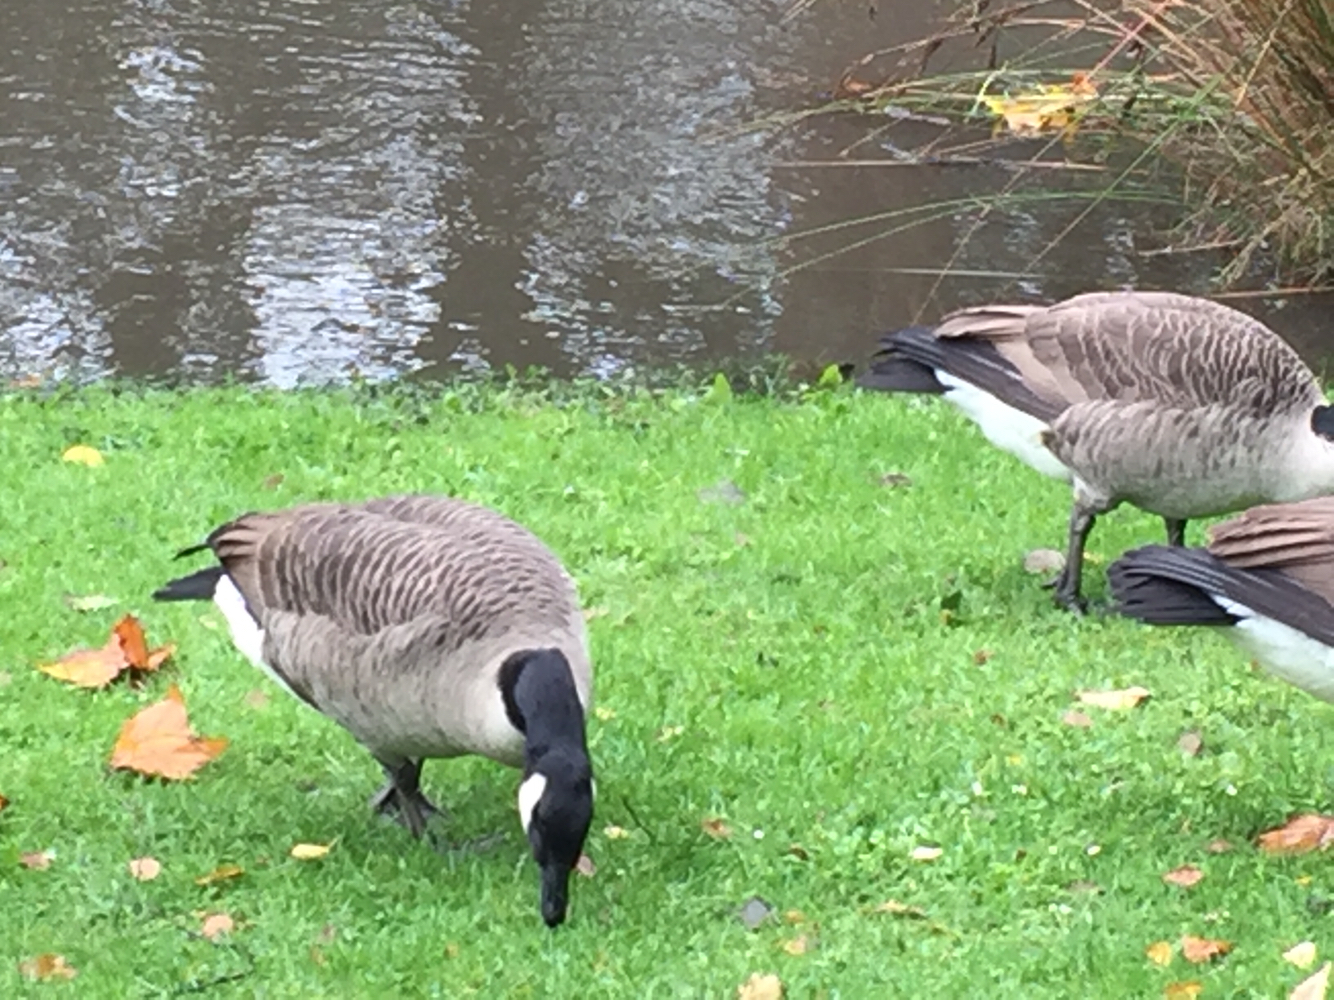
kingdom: Animalia
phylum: Chordata
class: Aves
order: Anseriformes
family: Anatidae
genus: Branta
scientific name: Branta canadensis
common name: Canada goose
